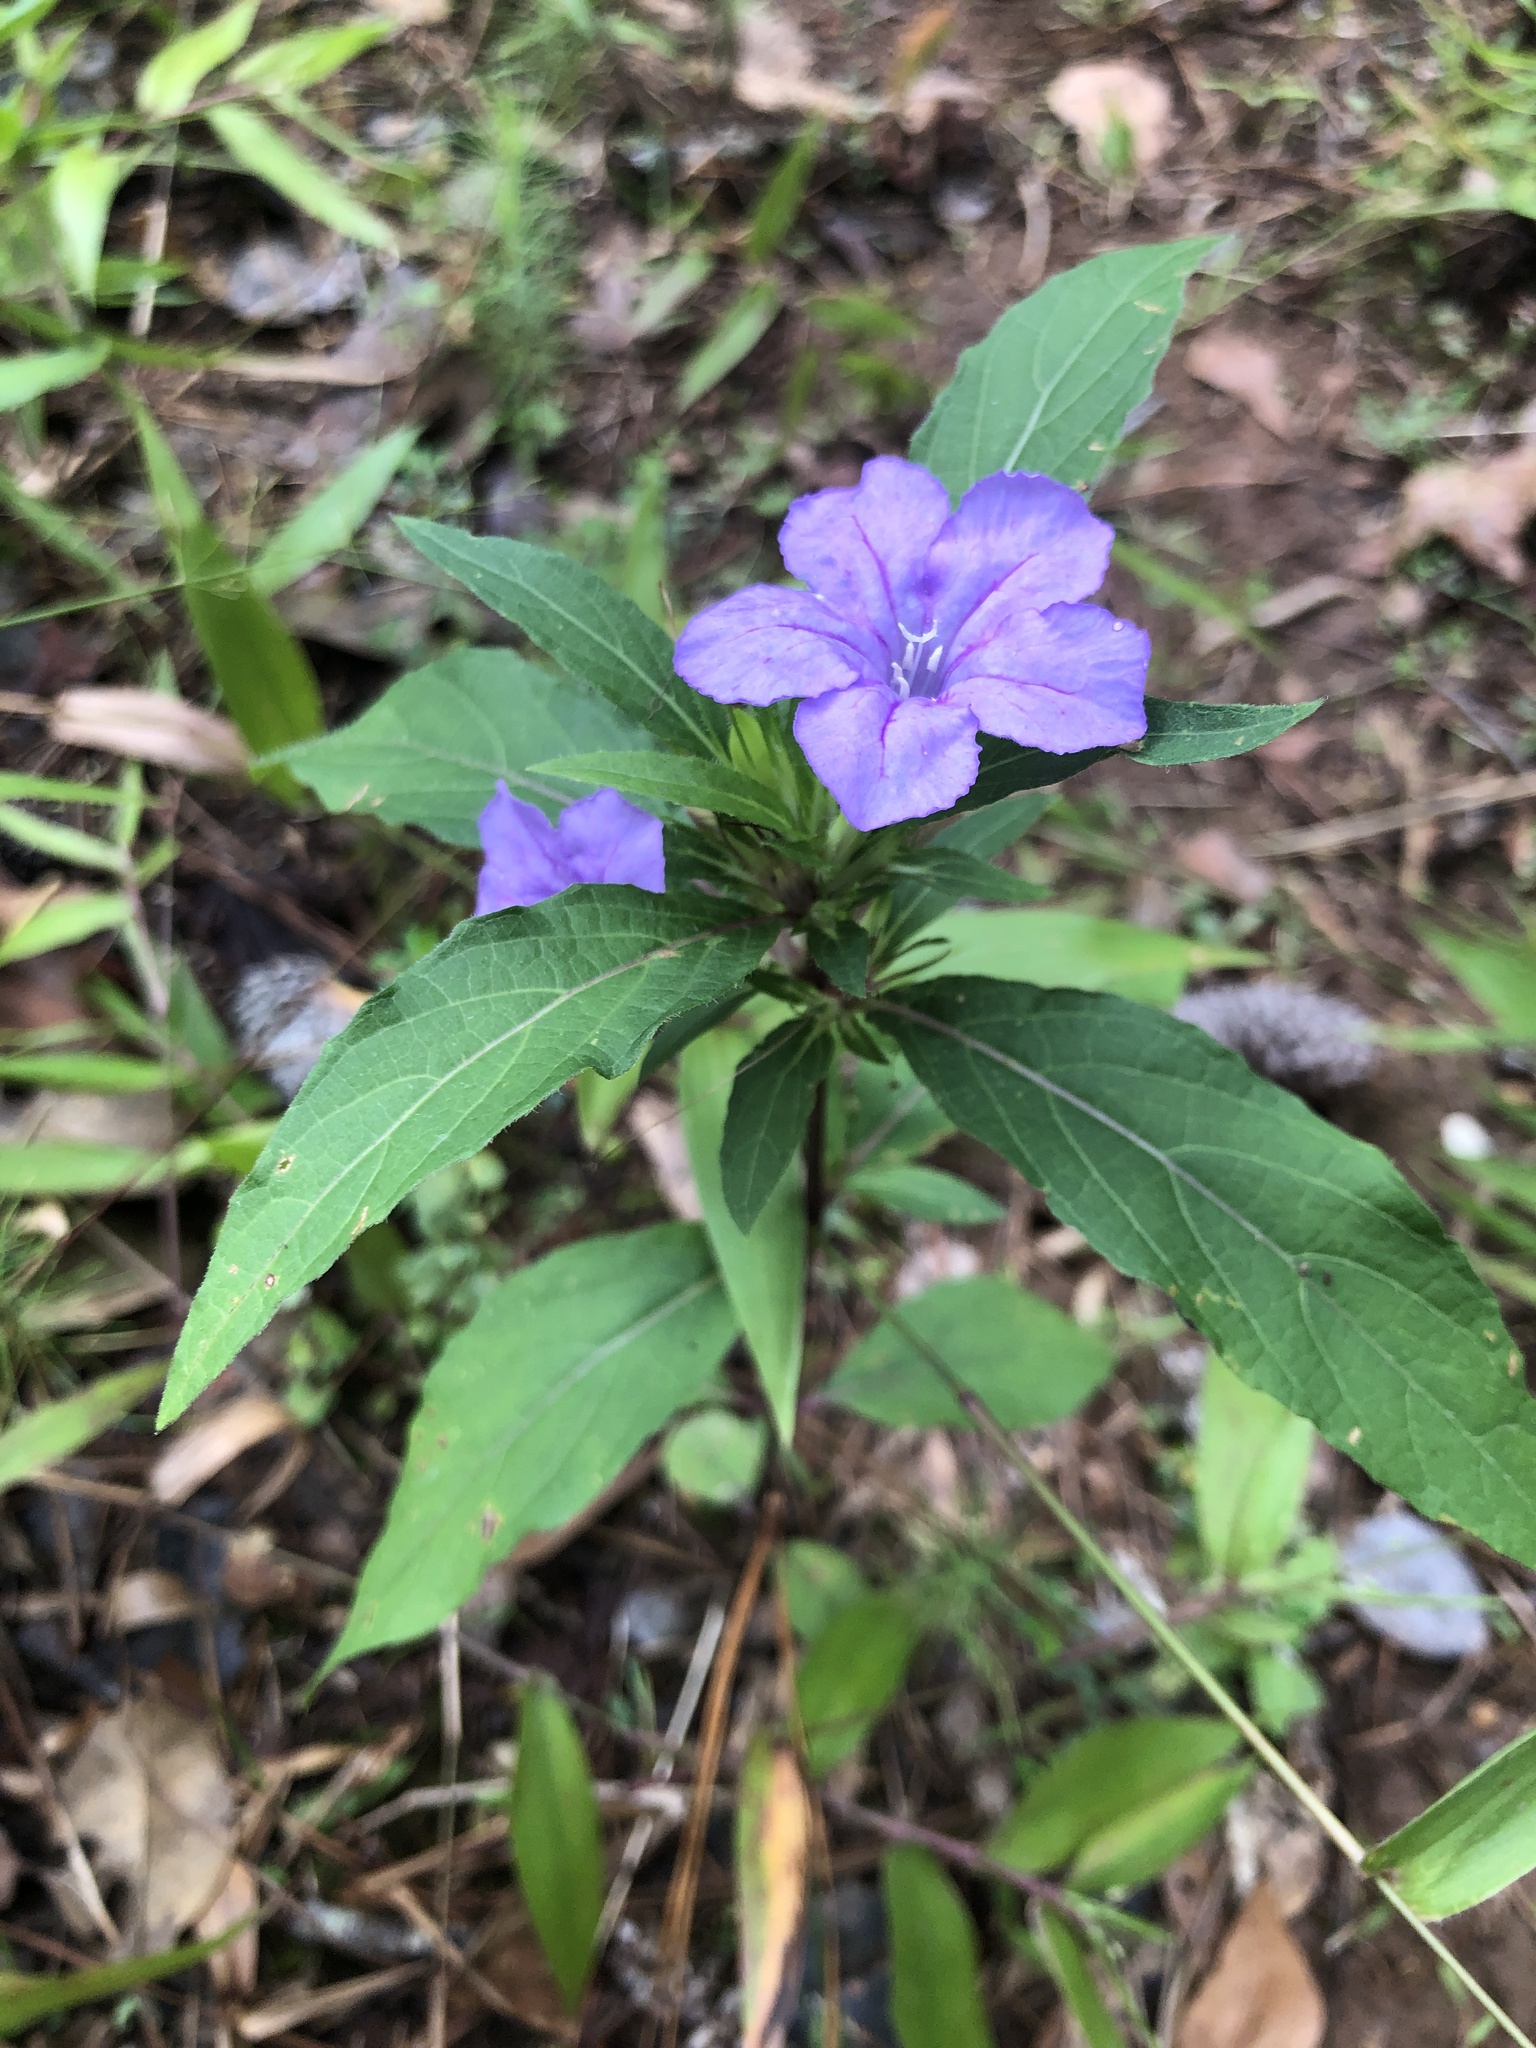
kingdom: Plantae
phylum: Tracheophyta
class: Magnoliopsida
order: Lamiales
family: Acanthaceae
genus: Ruellia
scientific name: Ruellia caroliniensis
